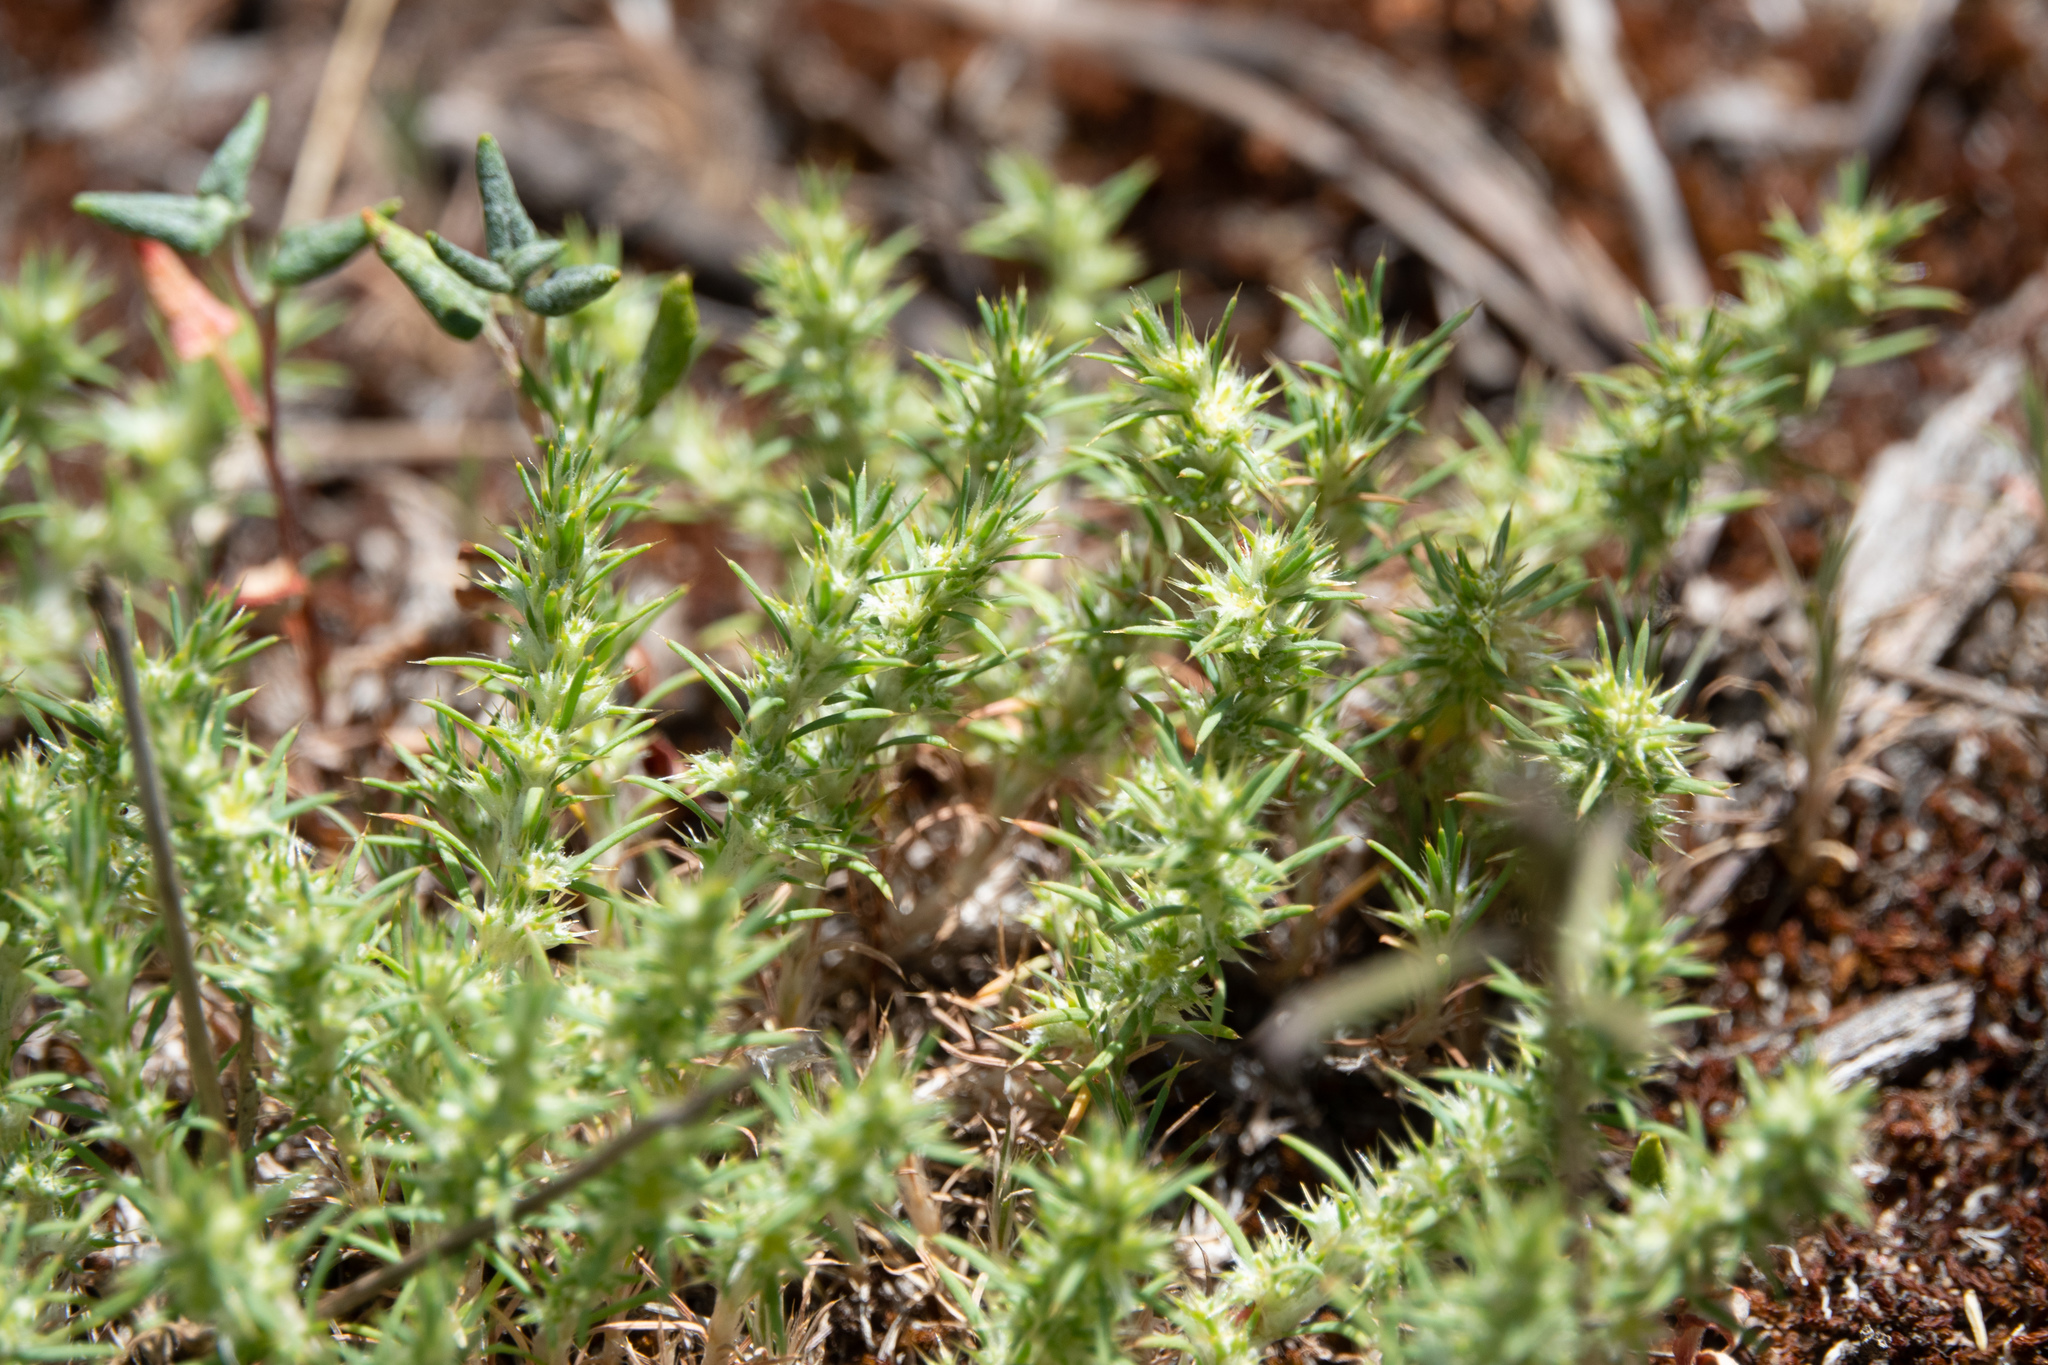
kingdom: Plantae
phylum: Tracheophyta
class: Magnoliopsida
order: Caryophyllales
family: Caryophyllaceae
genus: Cardionema
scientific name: Cardionema ramosissima
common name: Sandcarpet
